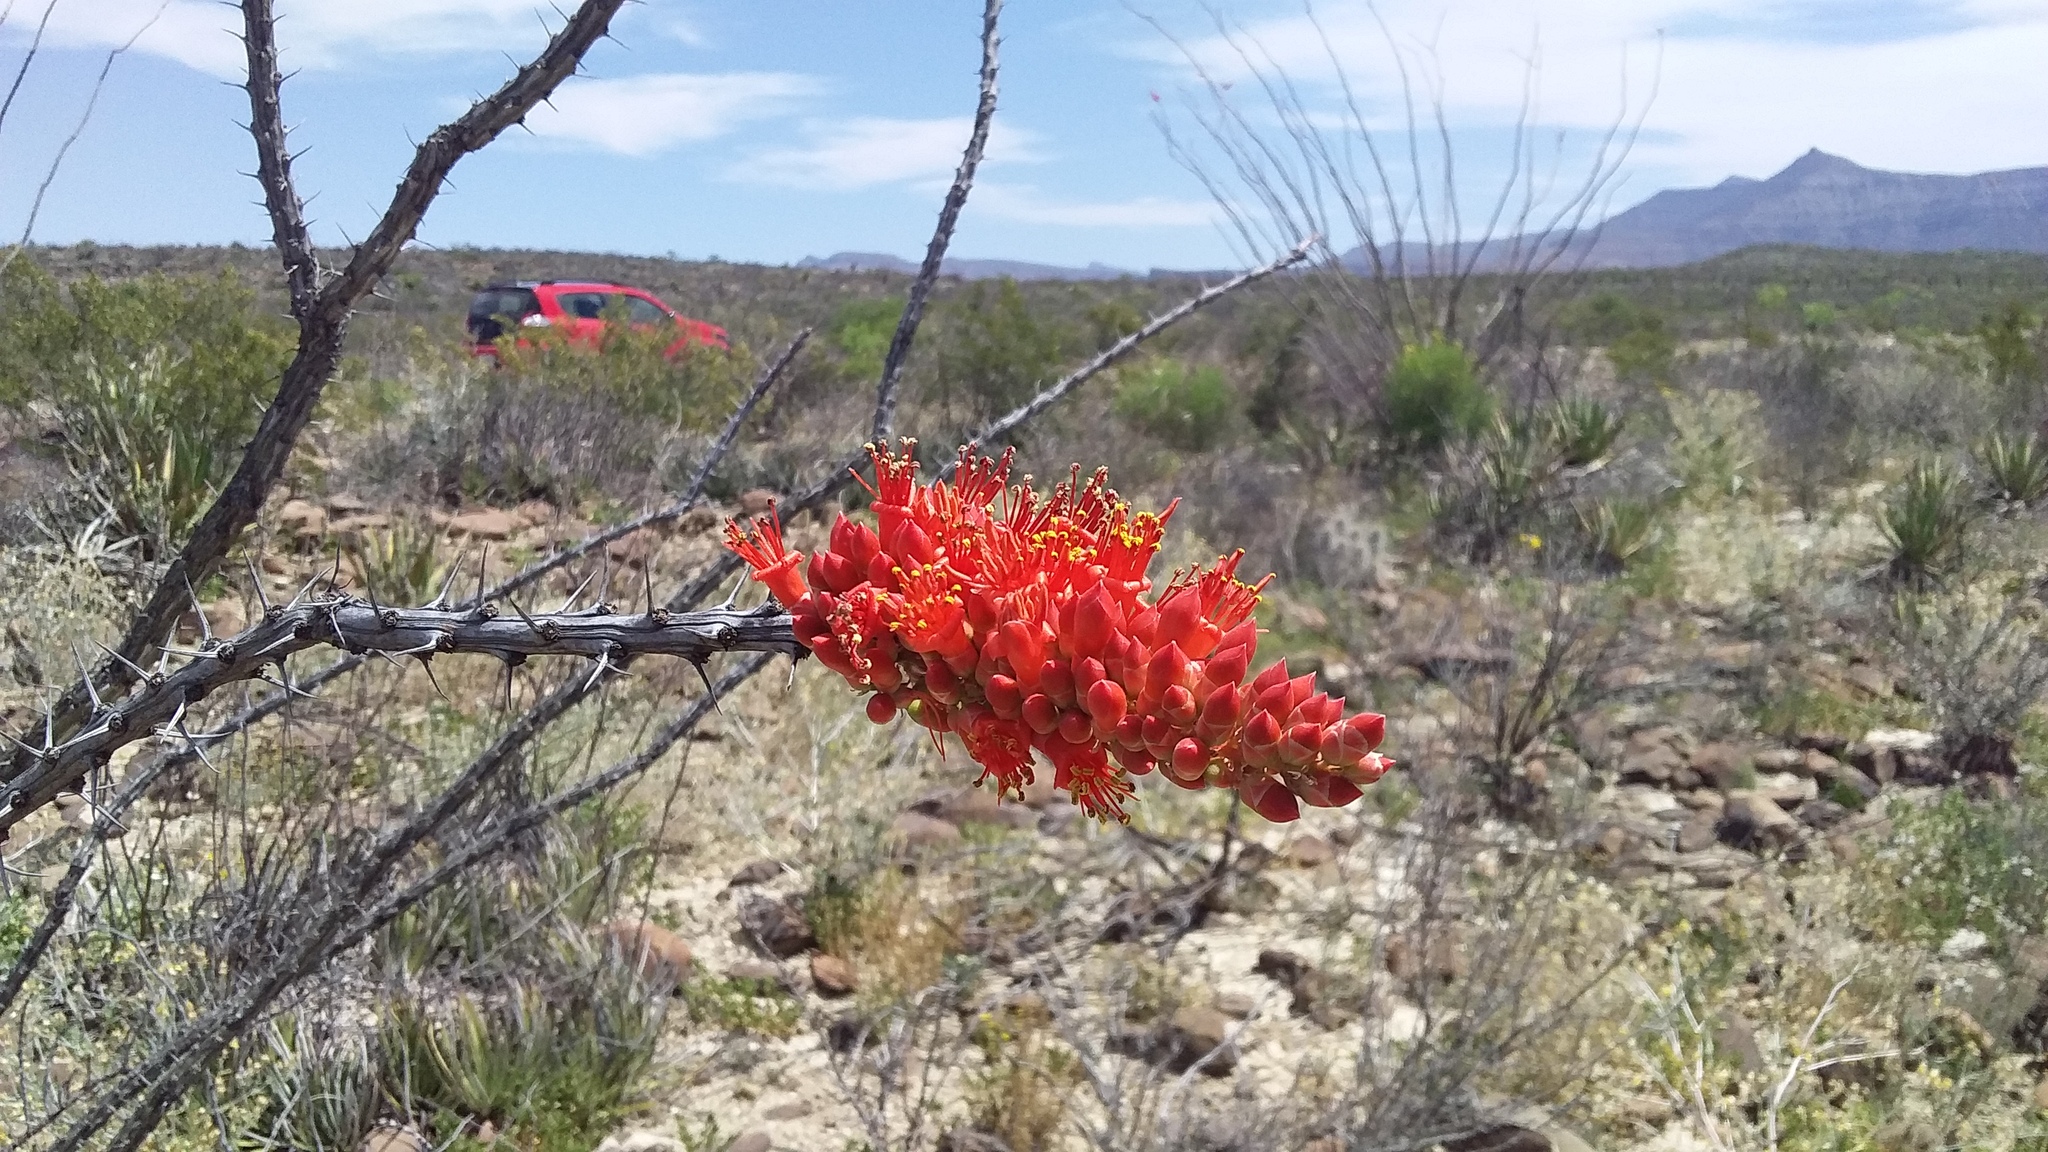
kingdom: Plantae
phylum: Tracheophyta
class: Magnoliopsida
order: Ericales
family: Fouquieriaceae
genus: Fouquieria
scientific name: Fouquieria splendens
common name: Vine-cactus
